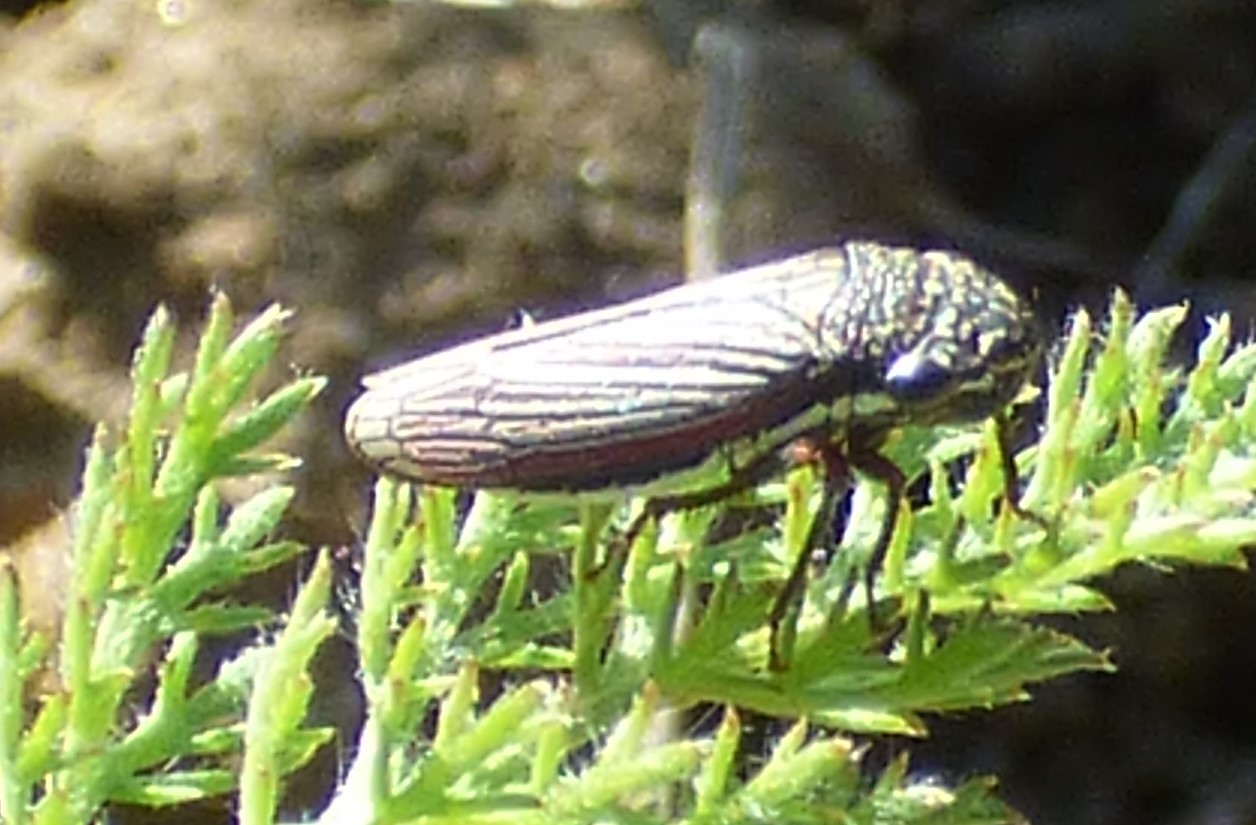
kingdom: Animalia
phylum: Arthropoda
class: Insecta
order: Hemiptera
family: Cicadellidae
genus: Cuerna
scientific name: Cuerna costalis
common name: Lateral-lined sharpshooter
